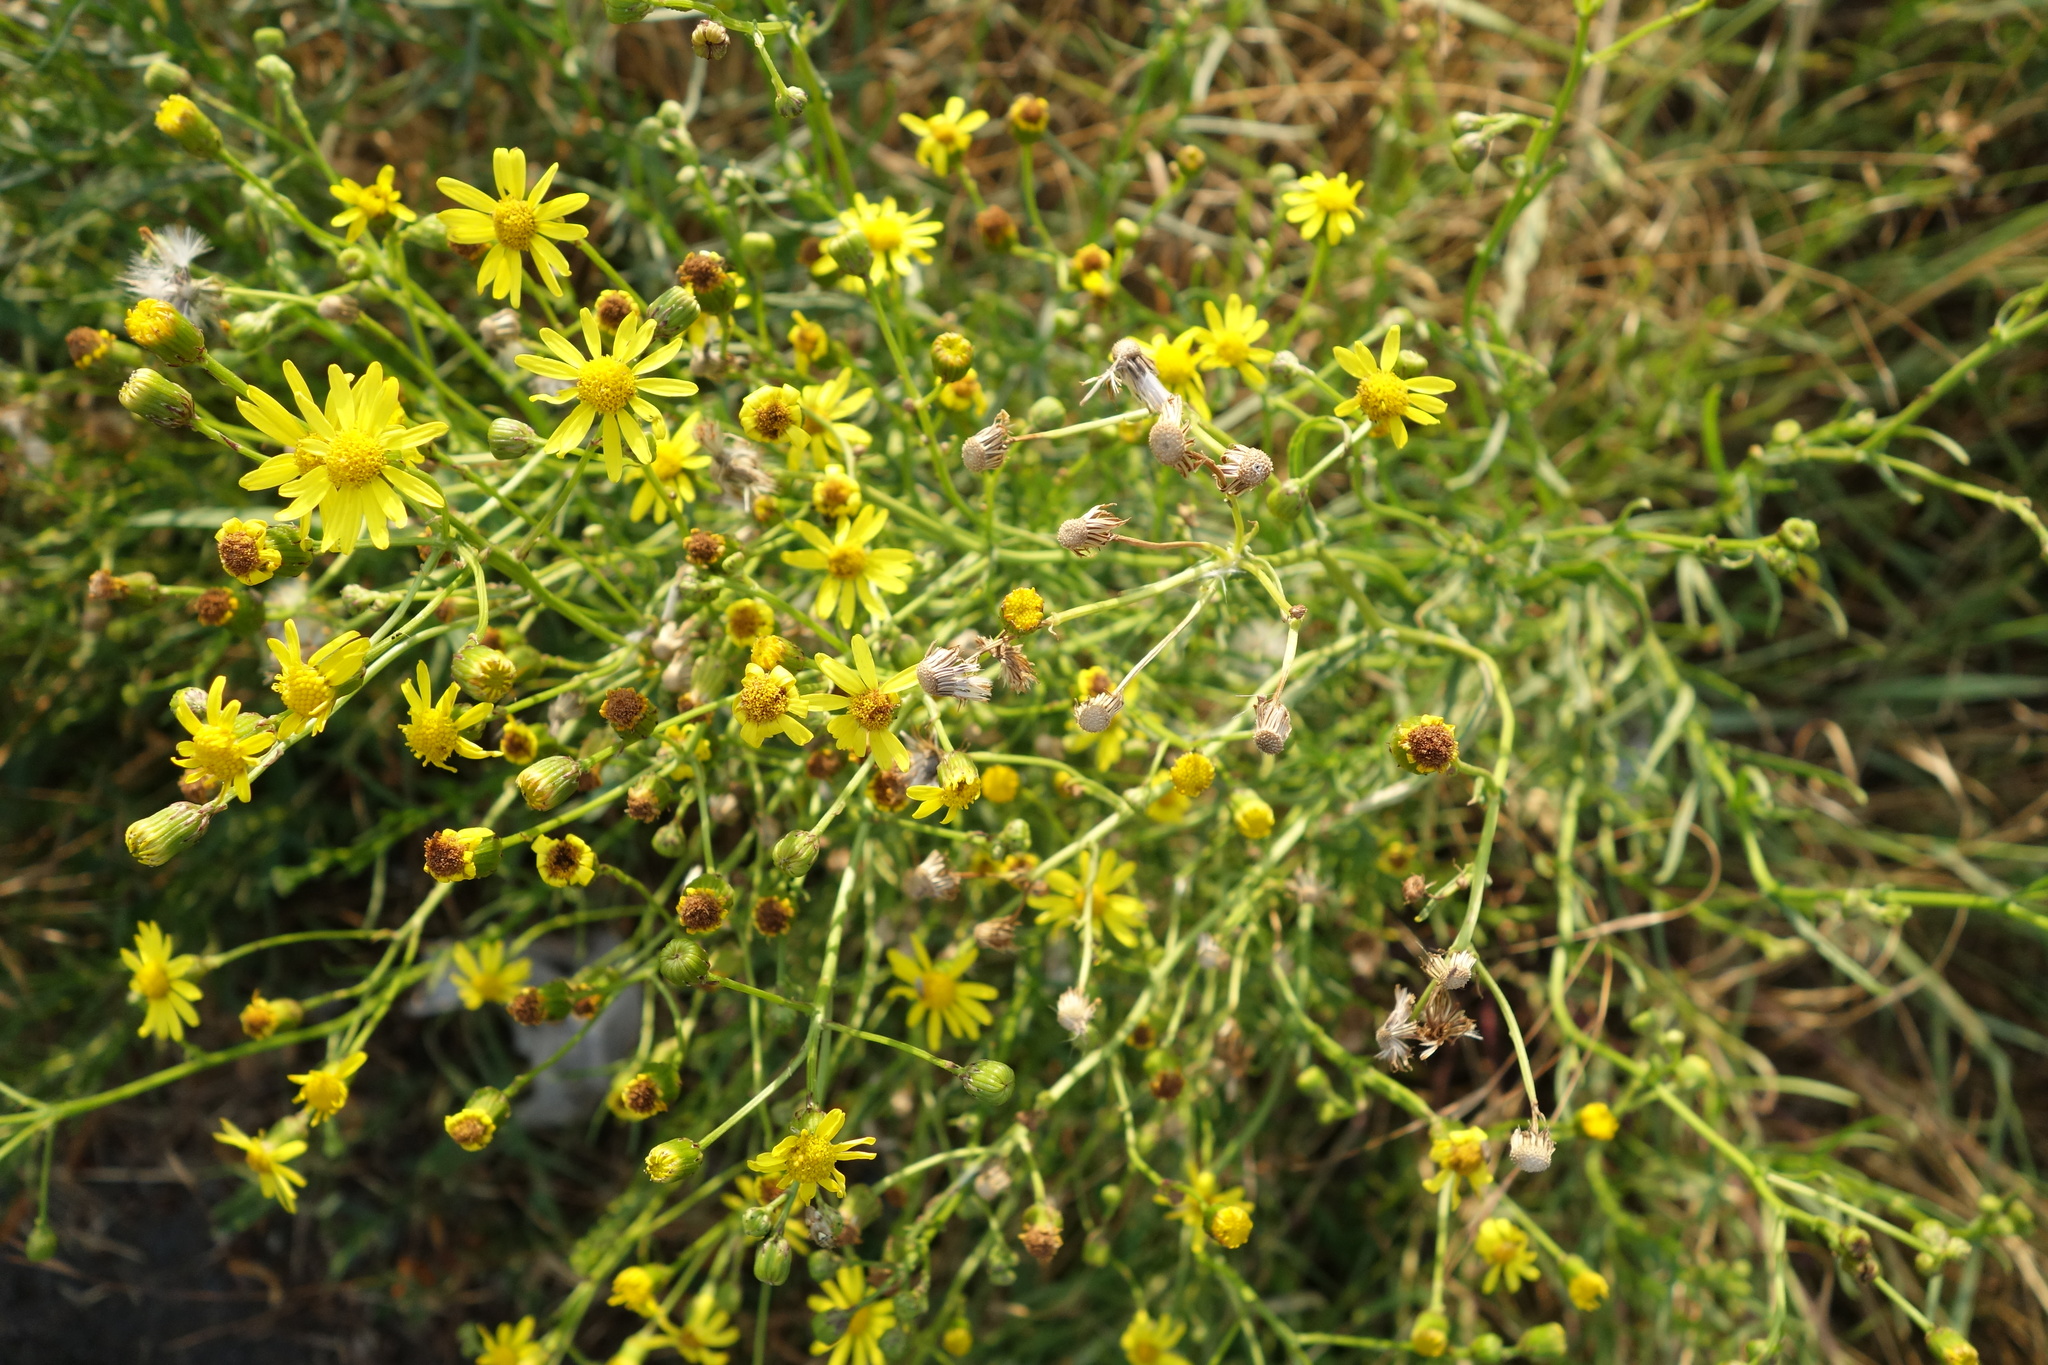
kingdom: Plantae
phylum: Tracheophyta
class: Magnoliopsida
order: Asterales
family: Asteraceae
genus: Senecio
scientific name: Senecio inaequidens
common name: Narrow-leaved ragwort
